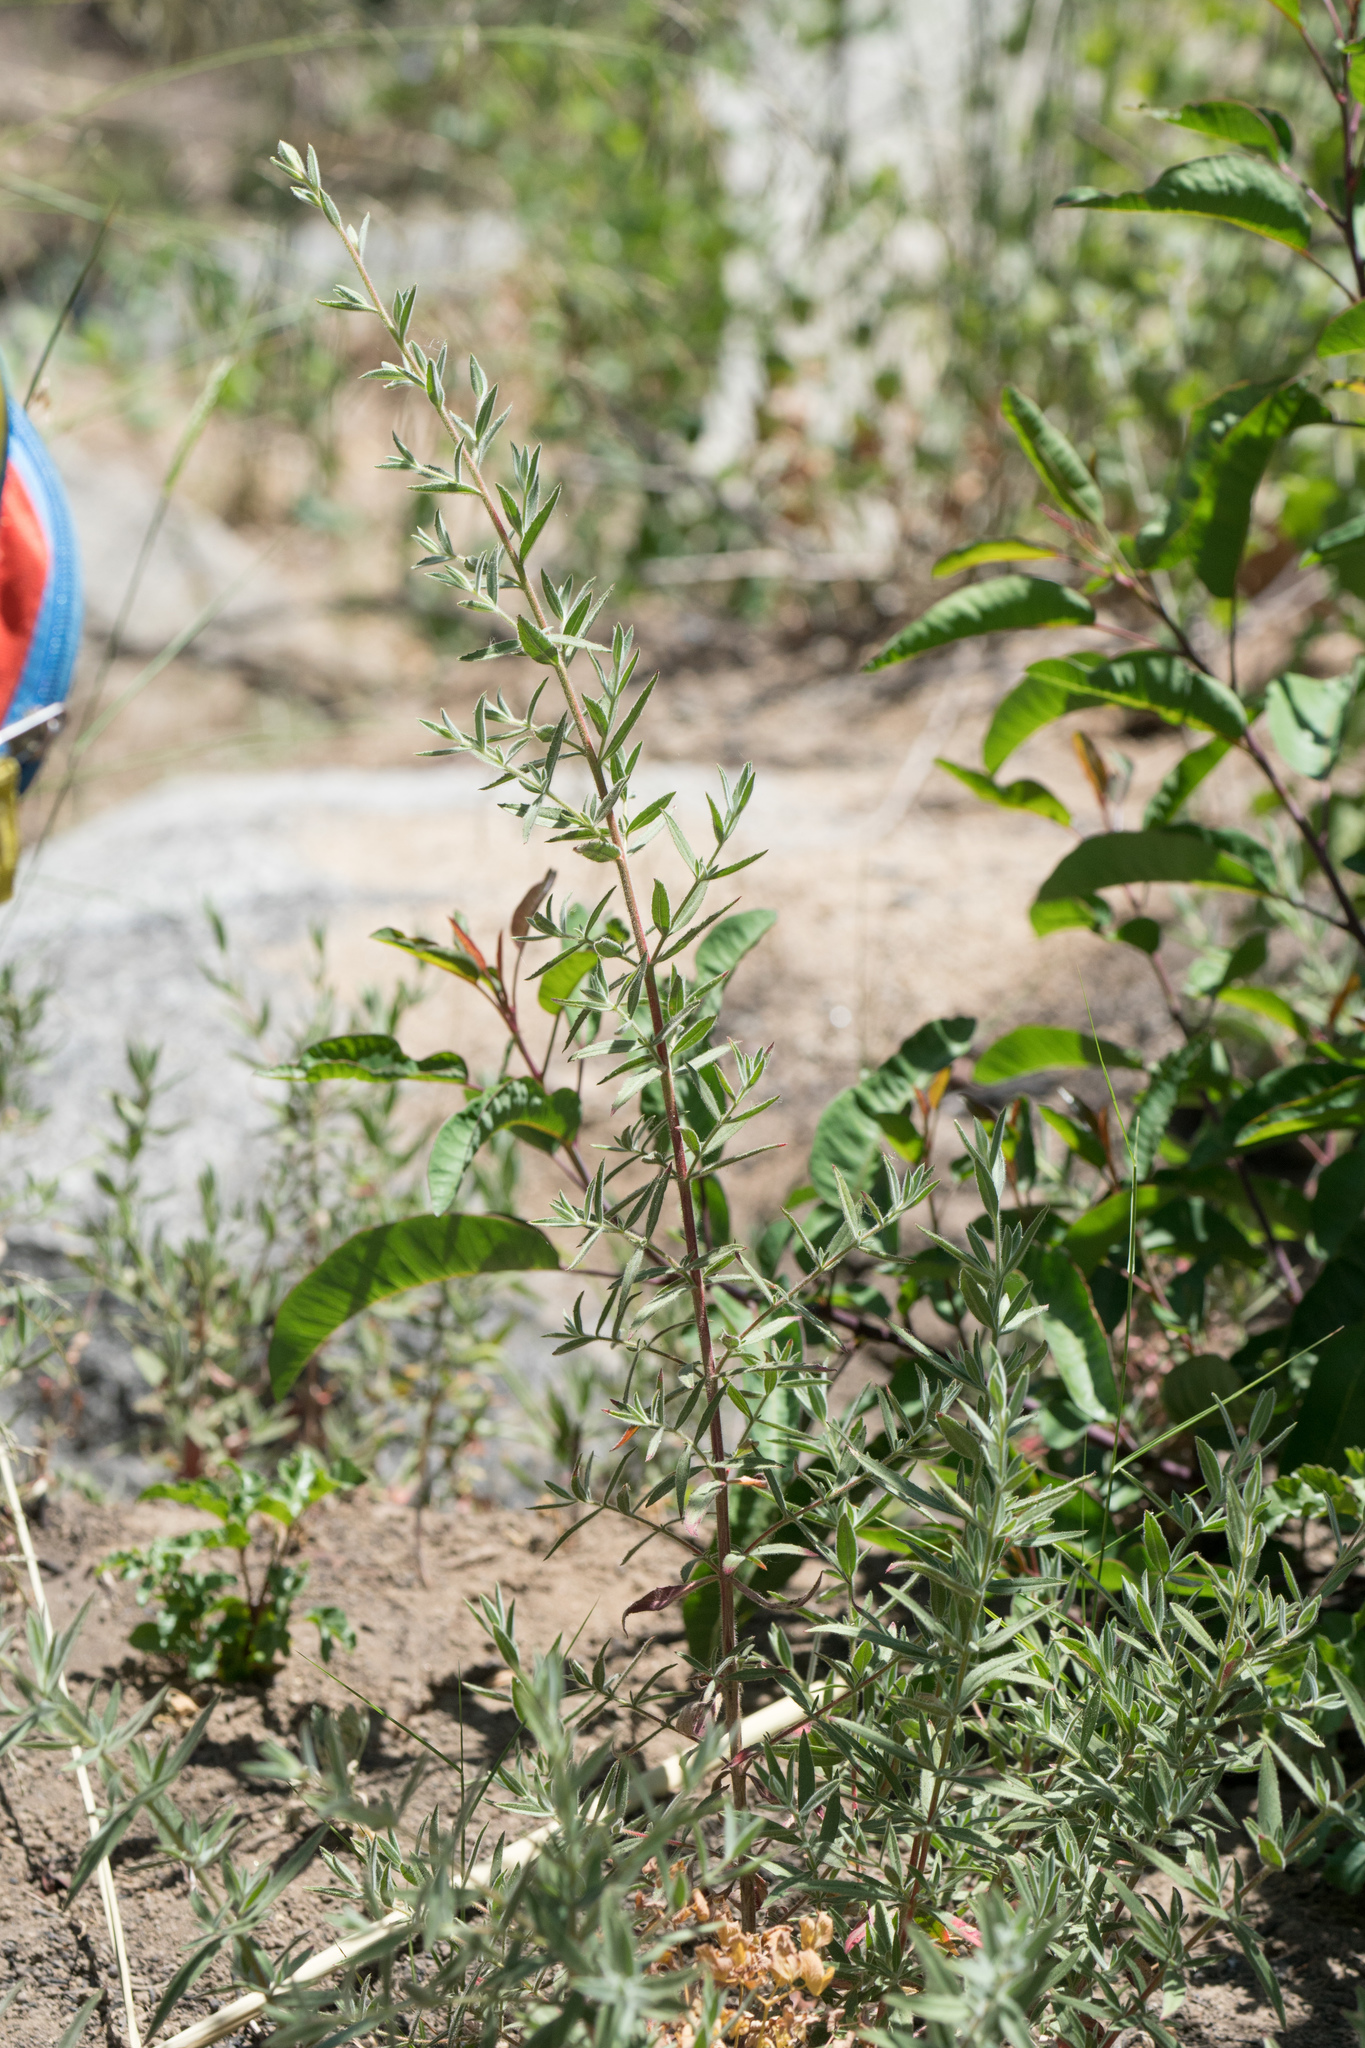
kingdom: Plantae
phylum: Tracheophyta
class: Magnoliopsida
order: Myrtales
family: Onagraceae
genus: Epilobium
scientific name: Epilobium canum
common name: California-fuchsia
